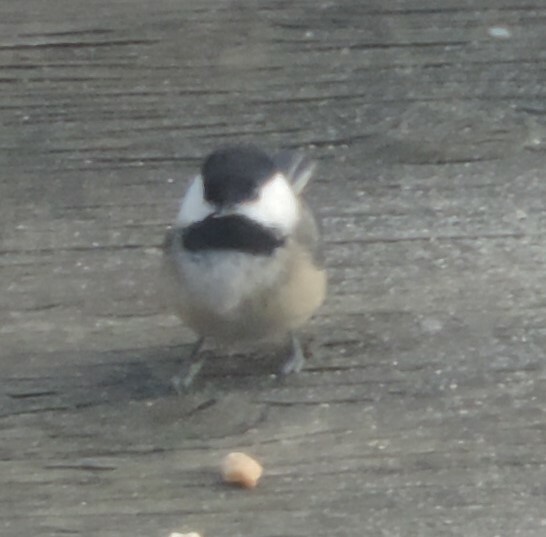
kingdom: Animalia
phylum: Chordata
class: Aves
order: Passeriformes
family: Paridae
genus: Poecile
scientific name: Poecile atricapillus
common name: Black-capped chickadee
